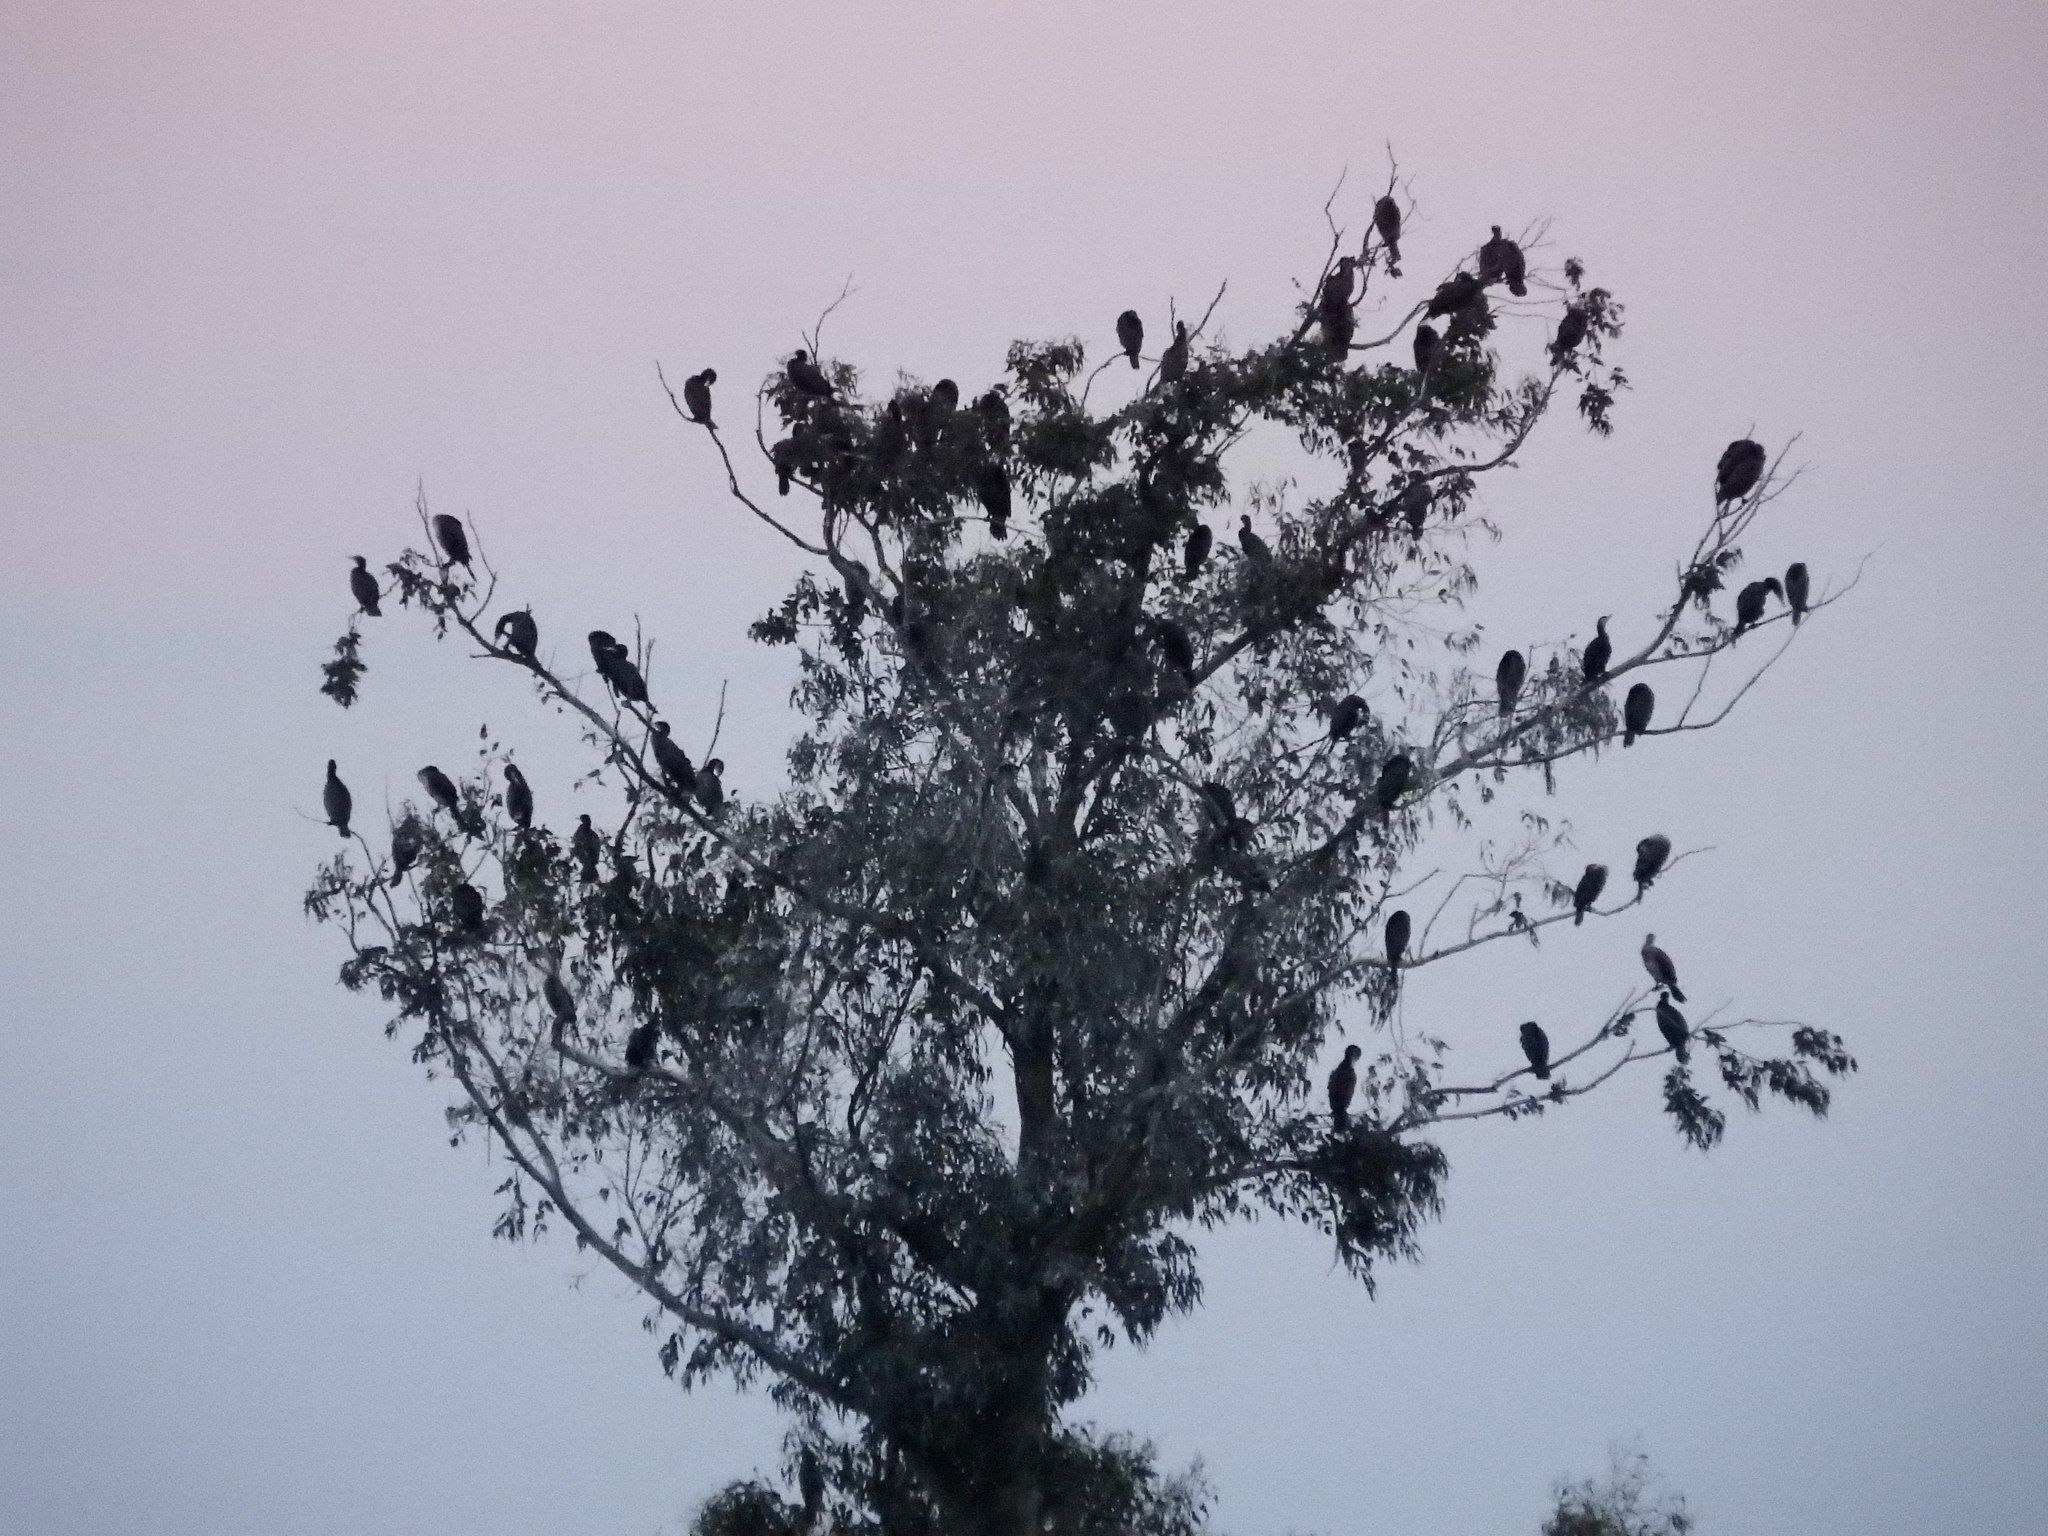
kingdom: Animalia
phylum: Chordata
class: Aves
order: Suliformes
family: Phalacrocoracidae
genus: Phalacrocorax
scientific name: Phalacrocorax carbo
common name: Great cormorant
